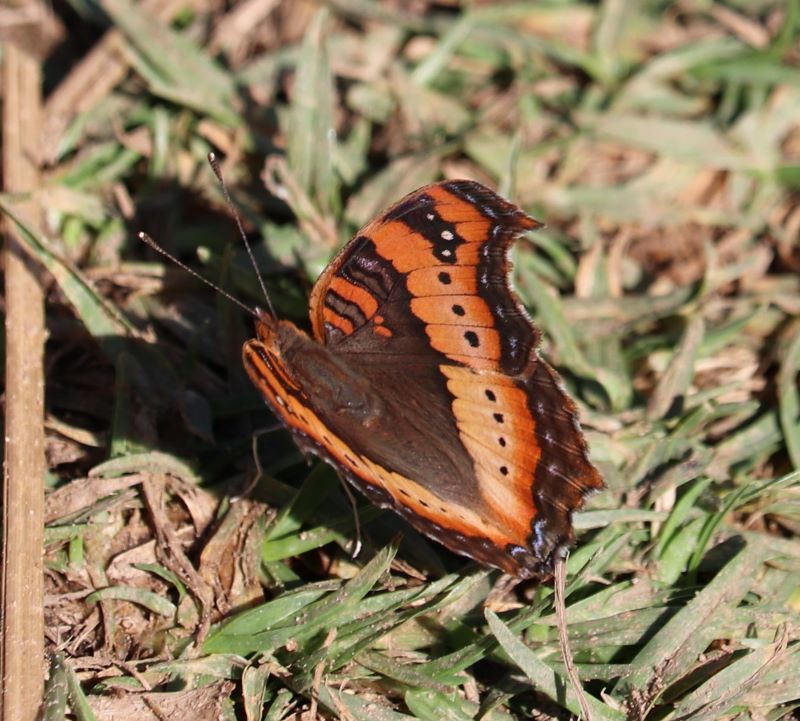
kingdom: Animalia
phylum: Arthropoda
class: Insecta
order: Lepidoptera
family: Nymphalidae
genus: Precis
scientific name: Precis ceryne
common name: Marsh commodore
